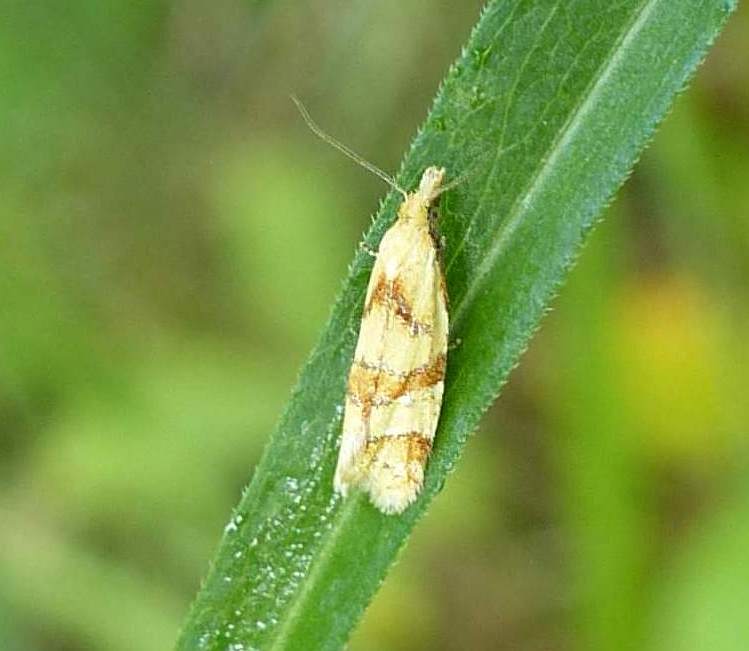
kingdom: Animalia
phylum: Arthropoda
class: Insecta
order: Lepidoptera
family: Tortricidae
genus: Phtheochroa
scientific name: Phtheochroa vitellinana
